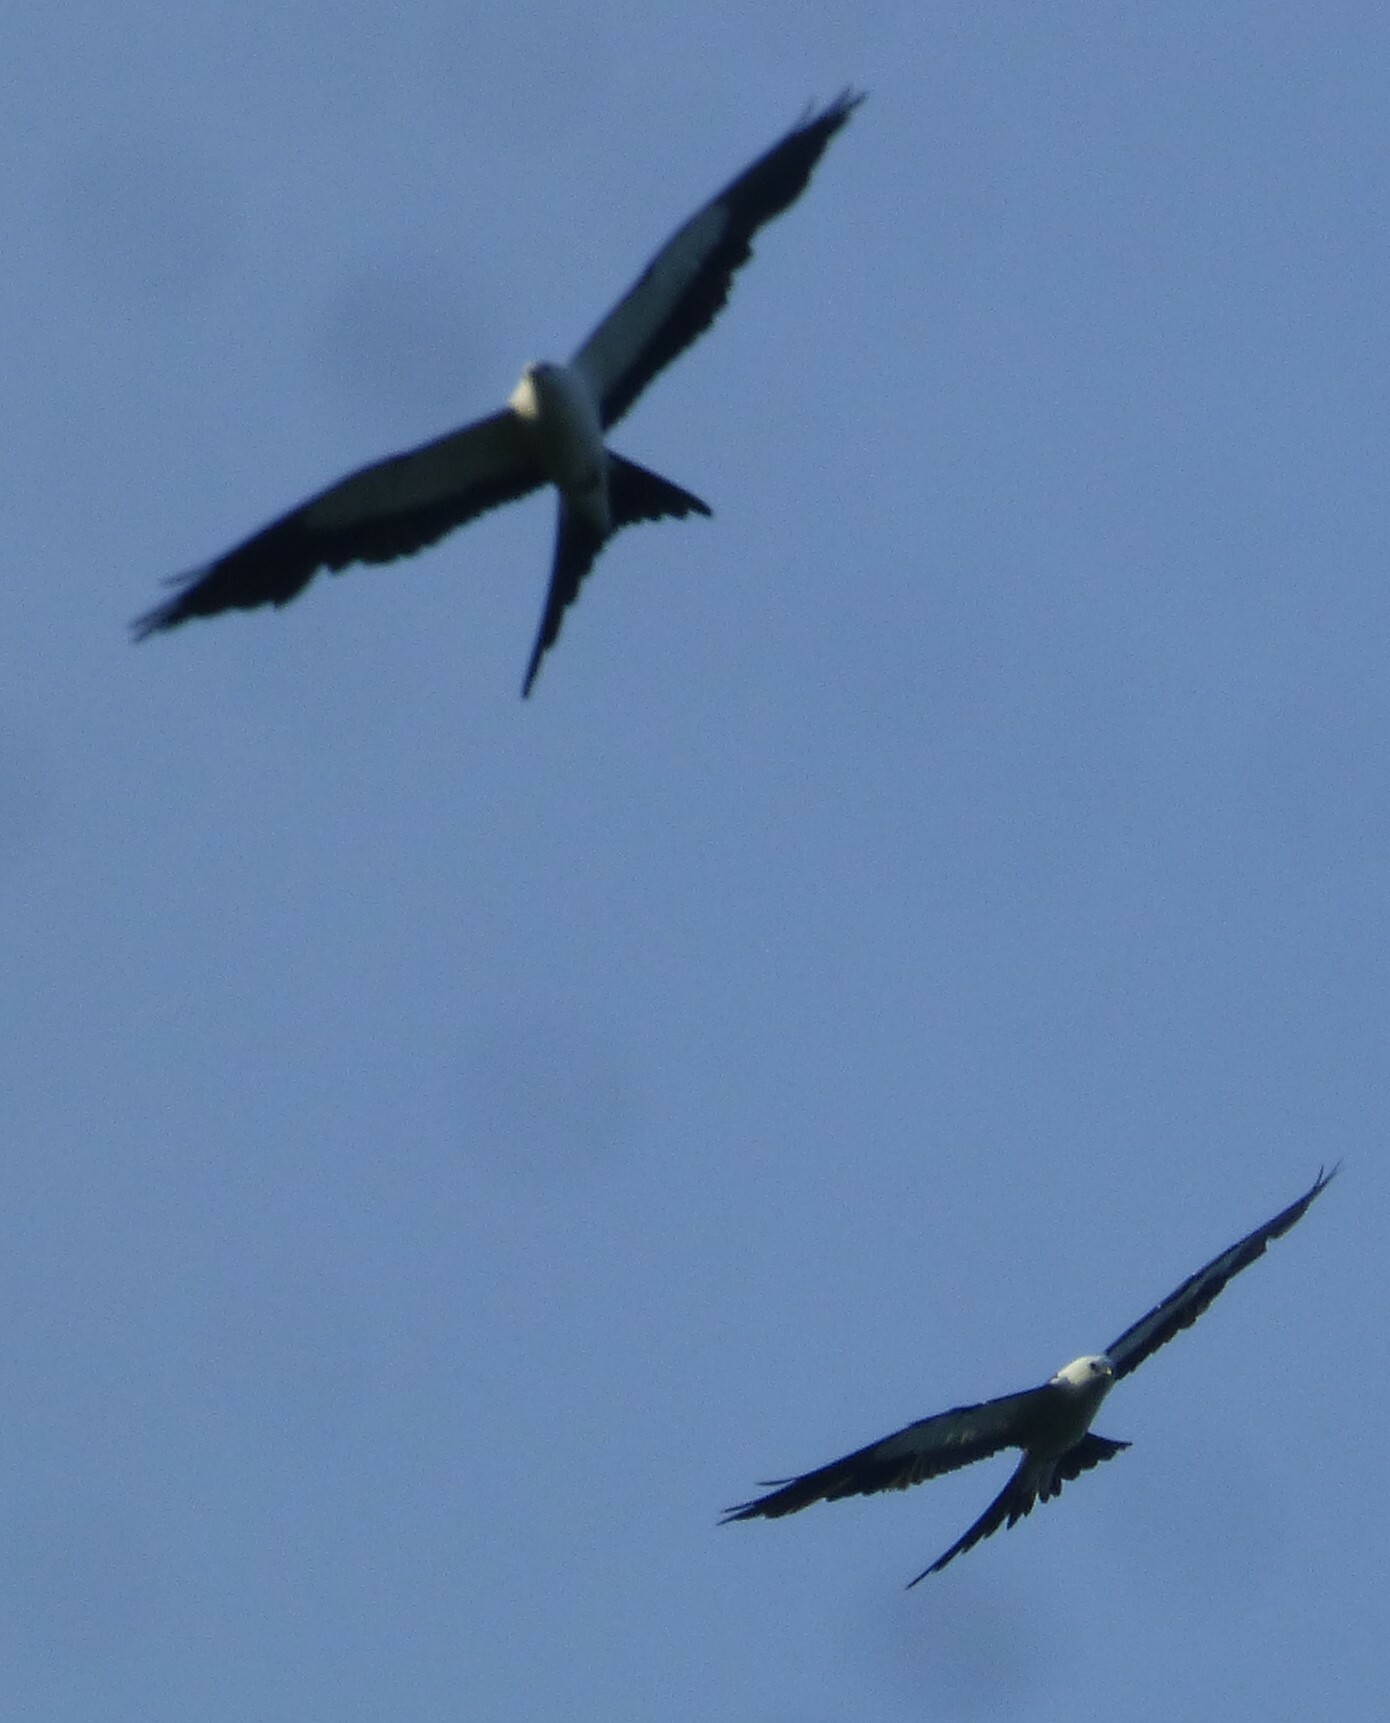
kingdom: Animalia
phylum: Chordata
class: Aves
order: Accipitriformes
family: Accipitridae
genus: Elanoides
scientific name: Elanoides forficatus
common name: Swallow-tailed kite
